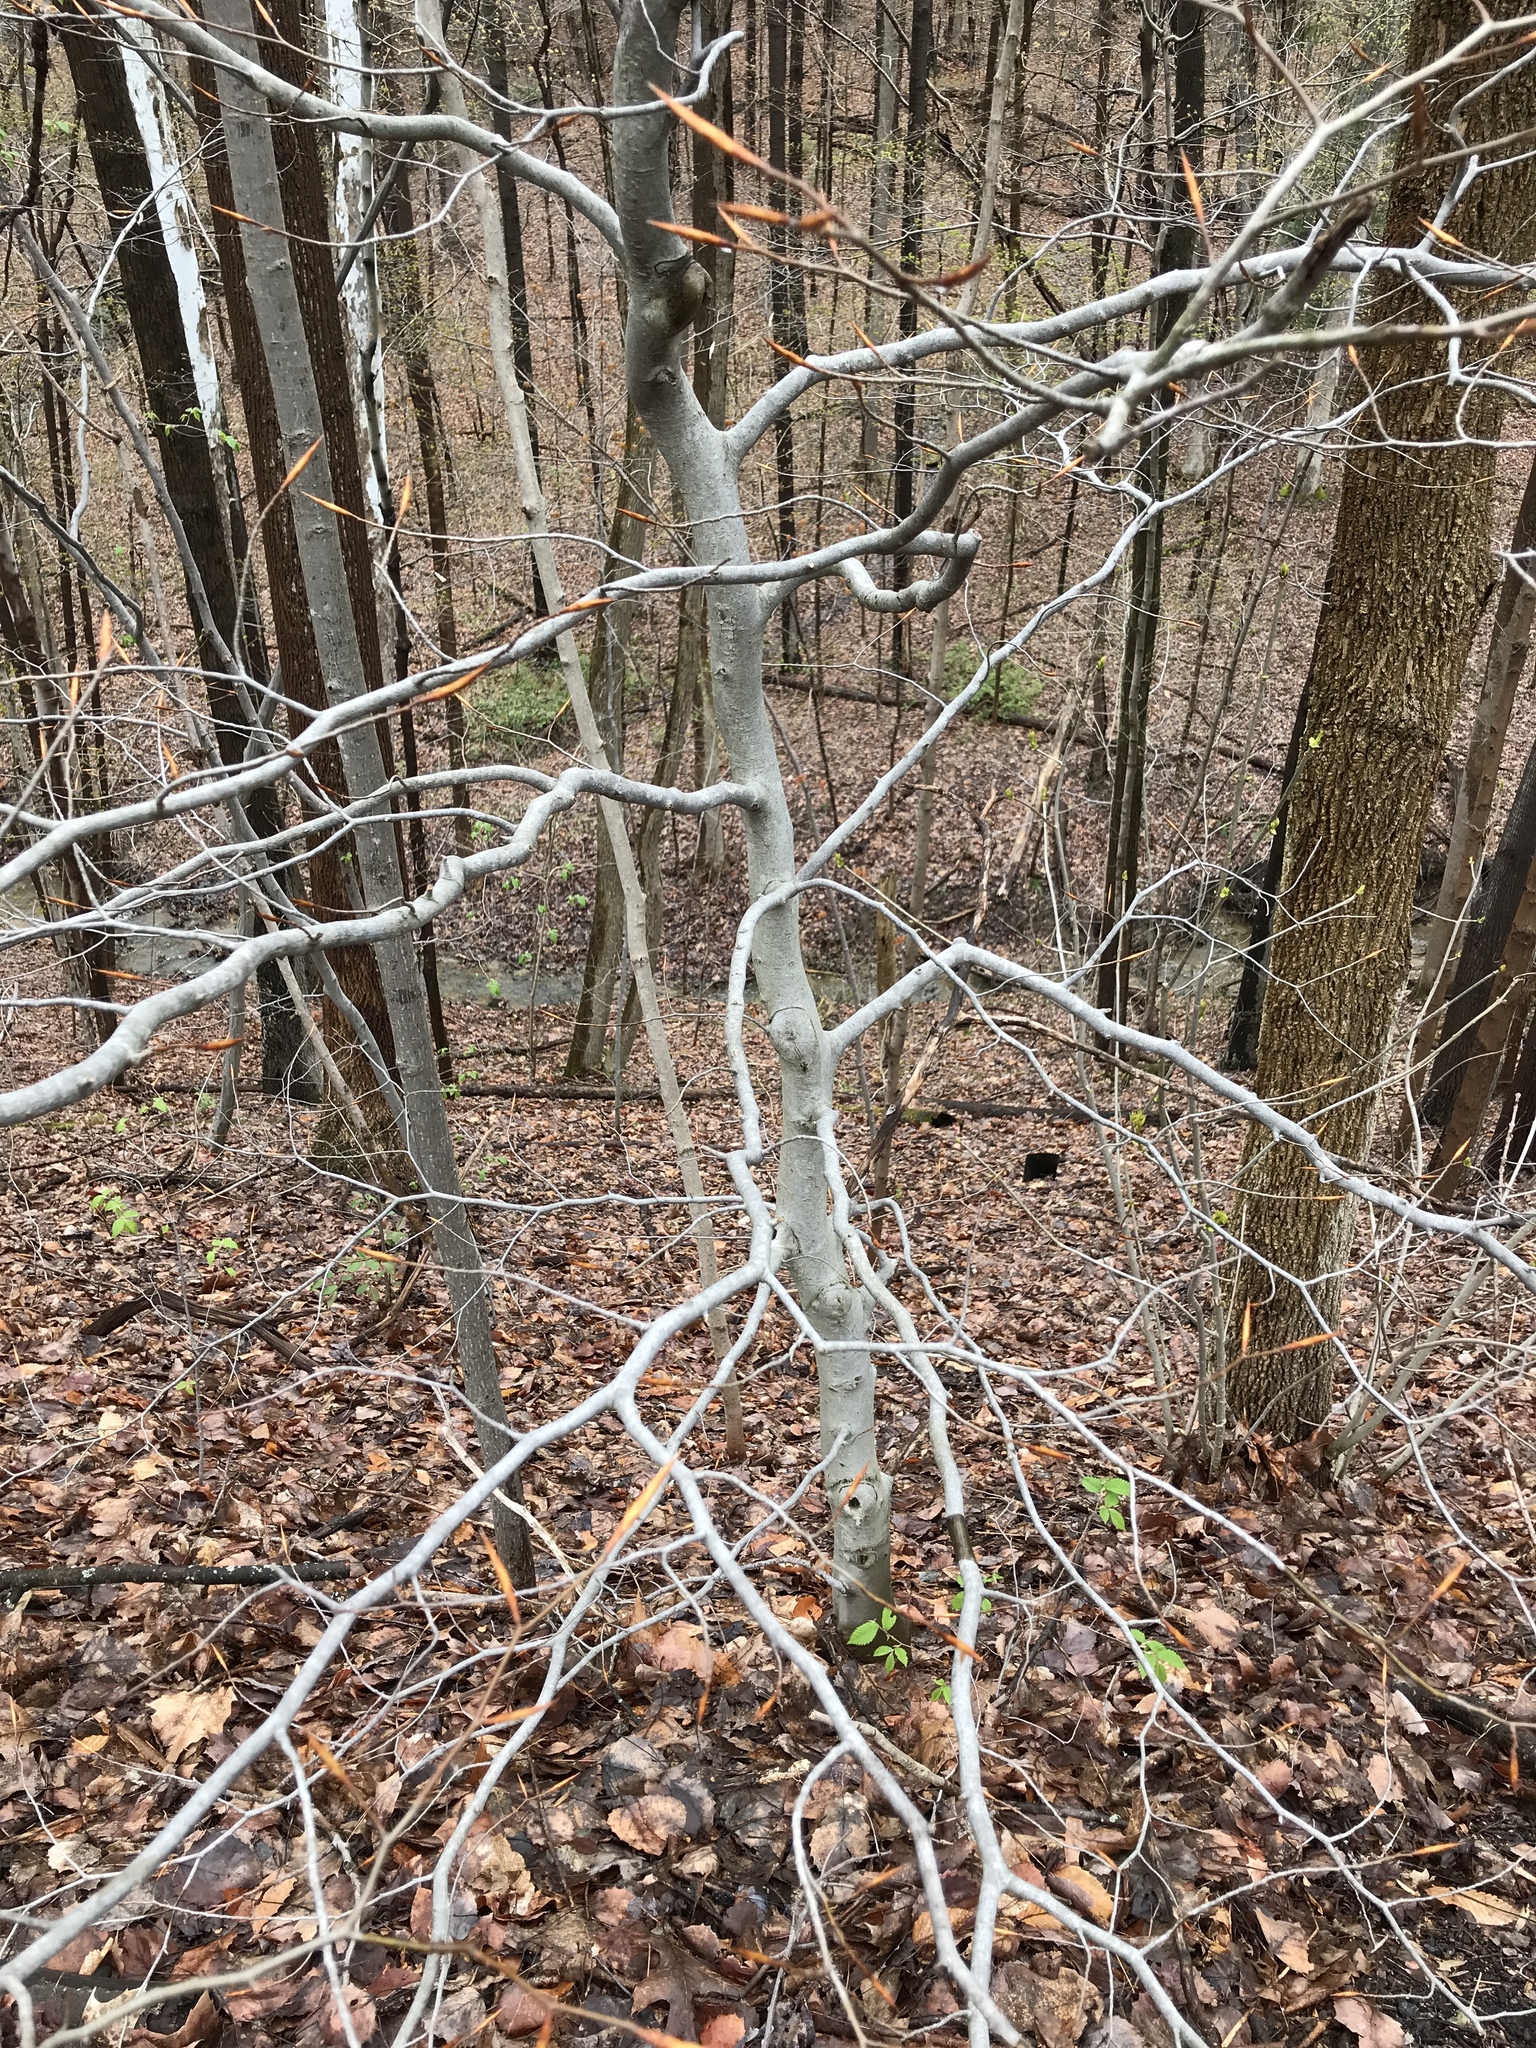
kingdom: Plantae
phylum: Tracheophyta
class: Magnoliopsida
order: Fagales
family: Fagaceae
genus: Fagus
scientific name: Fagus grandifolia
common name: American beech
